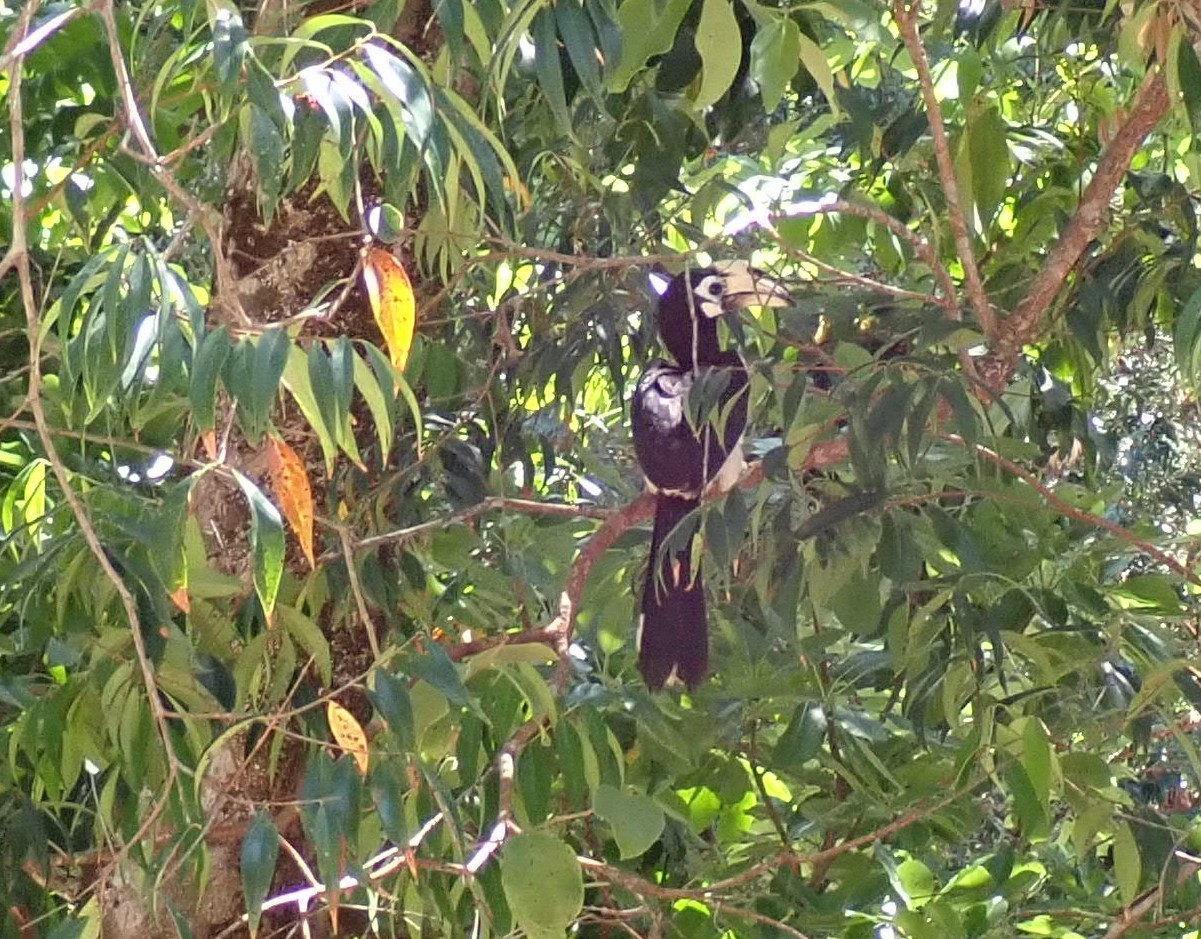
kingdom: Animalia
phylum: Chordata
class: Aves
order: Bucerotiformes
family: Bucerotidae
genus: Anthracoceros
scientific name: Anthracoceros albirostris
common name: Oriental pied-hornbill
